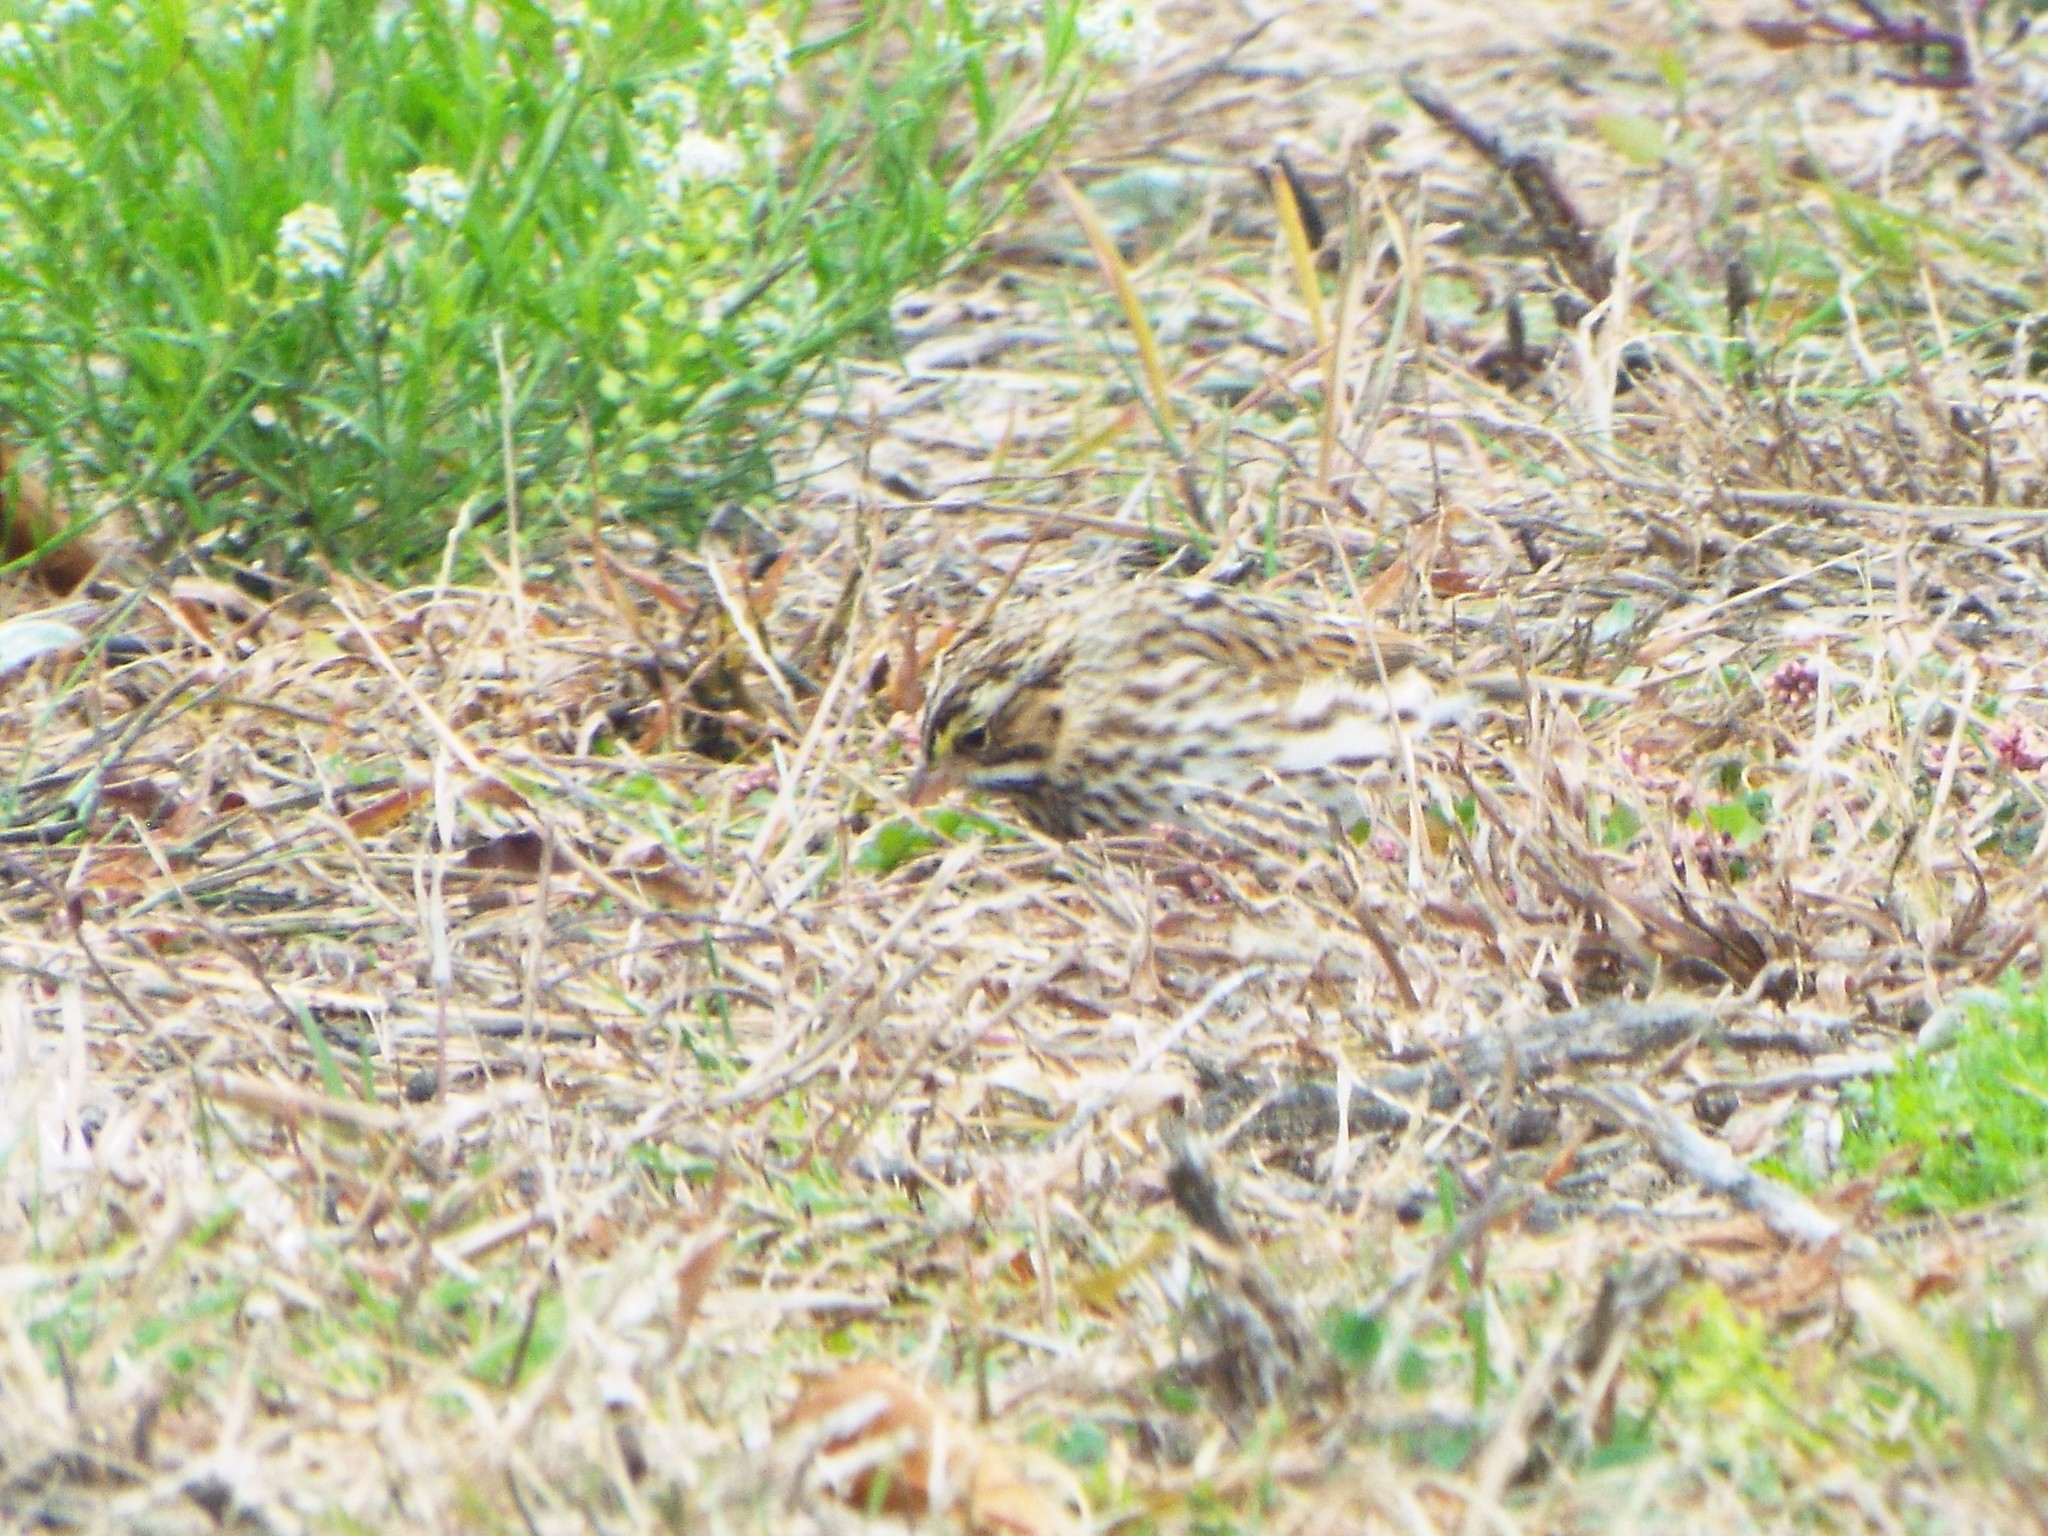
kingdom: Animalia
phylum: Chordata
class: Aves
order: Passeriformes
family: Passerellidae
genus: Passerculus
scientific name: Passerculus sandwichensis
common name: Savannah sparrow
